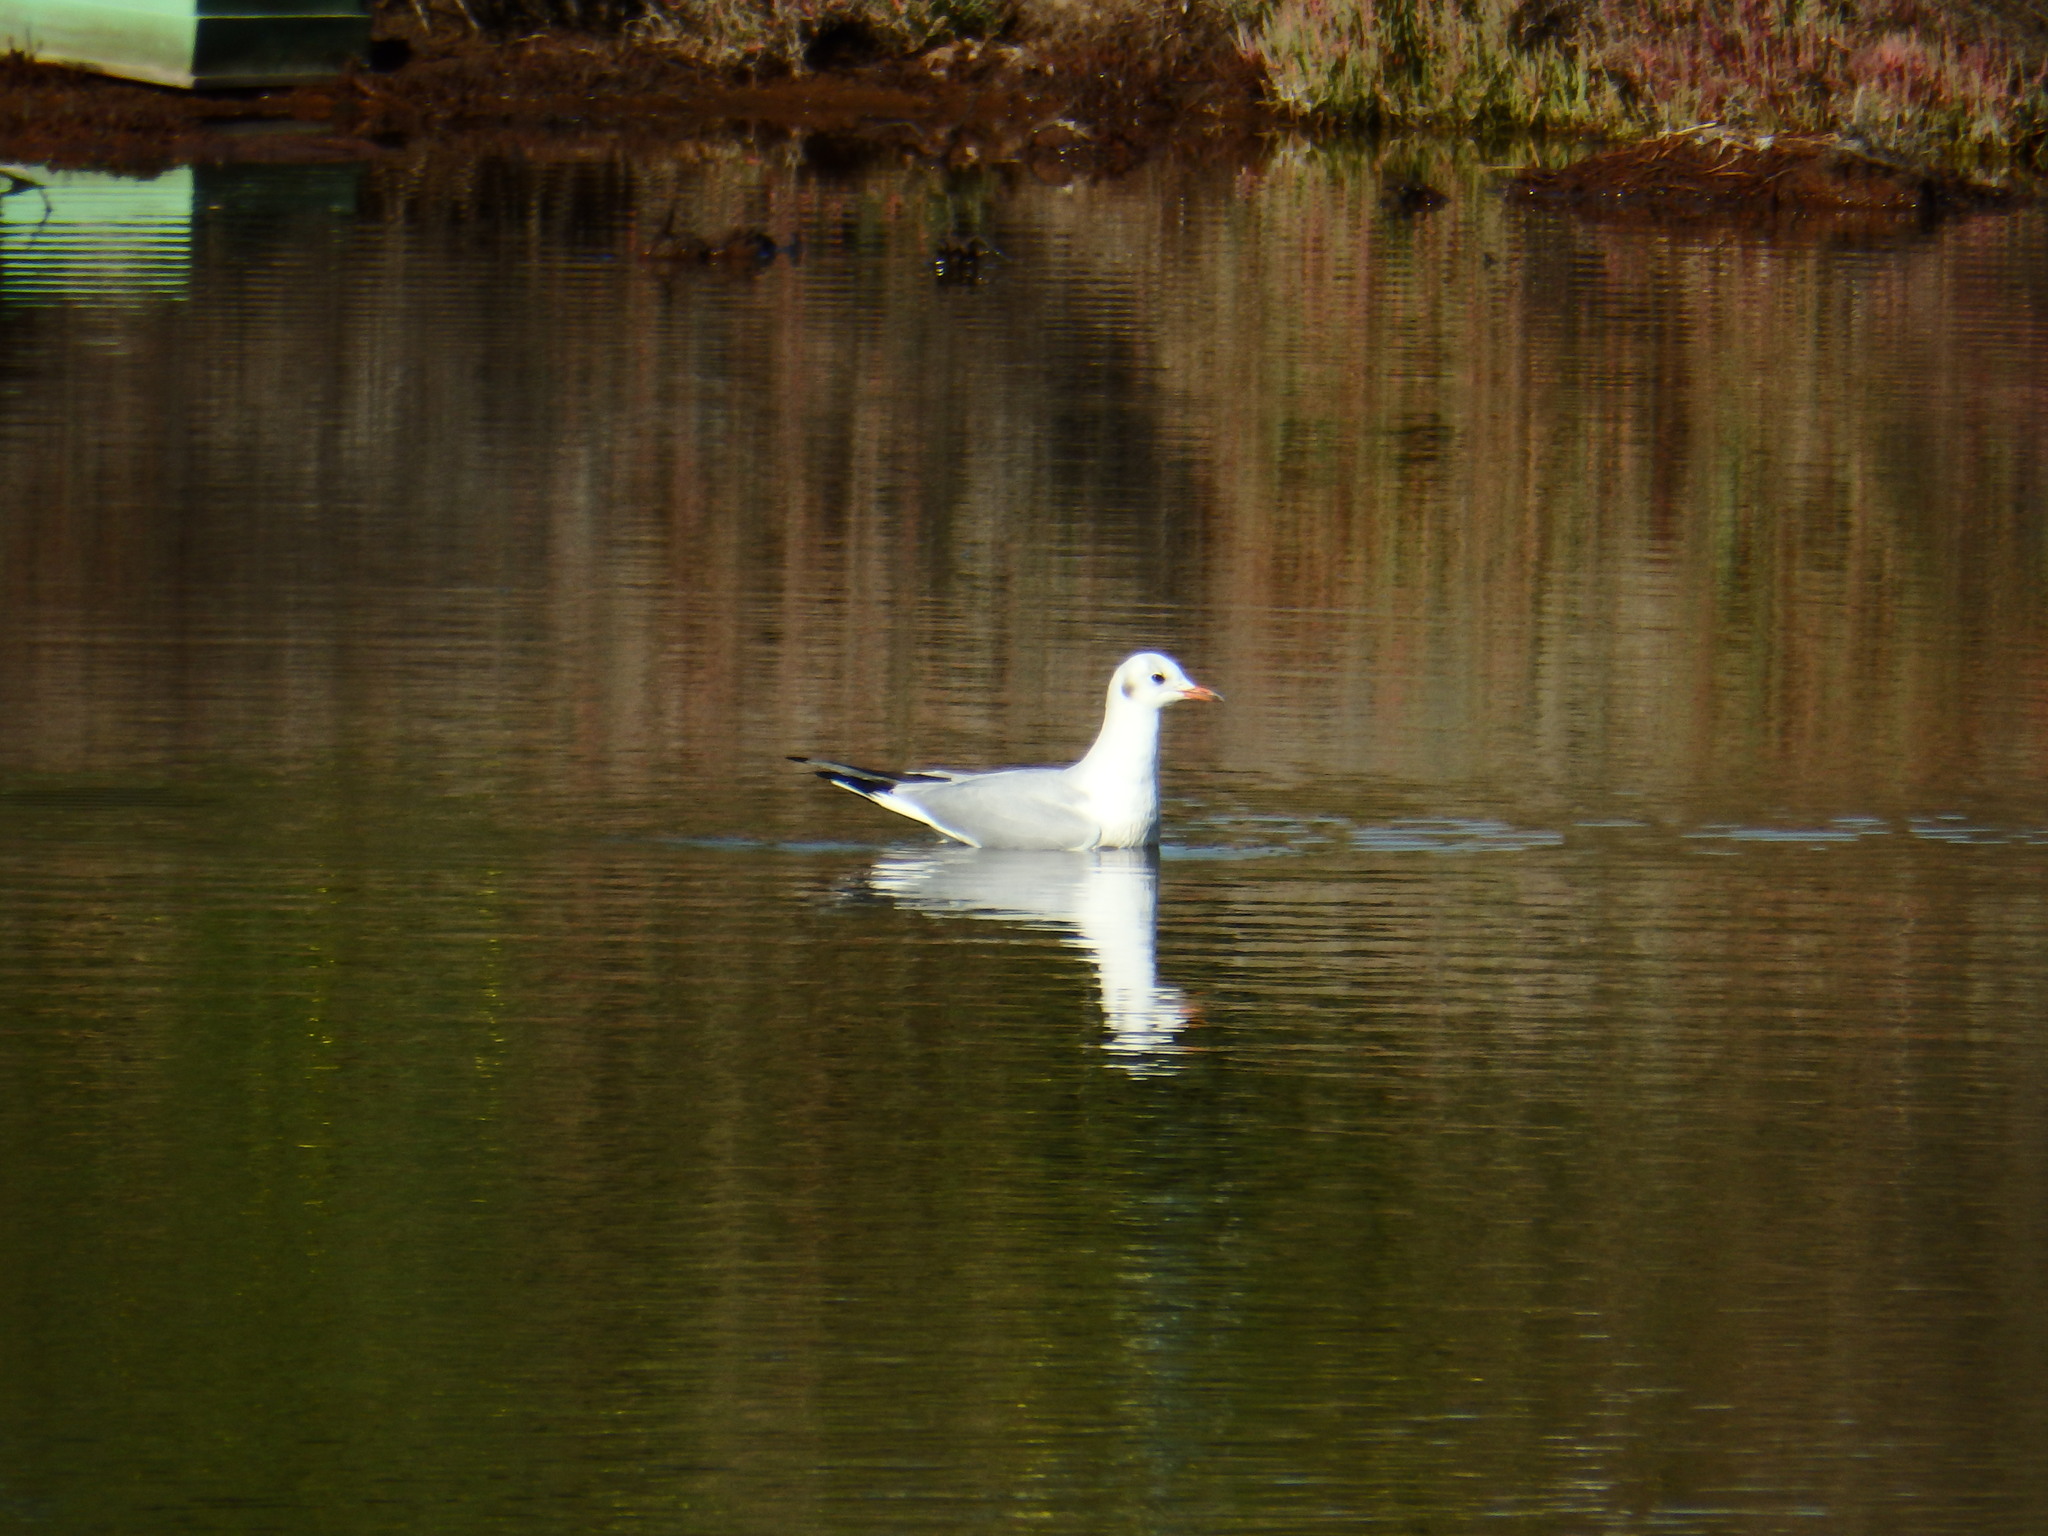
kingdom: Animalia
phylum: Chordata
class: Aves
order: Charadriiformes
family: Laridae
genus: Chroicocephalus
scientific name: Chroicocephalus ridibundus
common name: Black-headed gull
